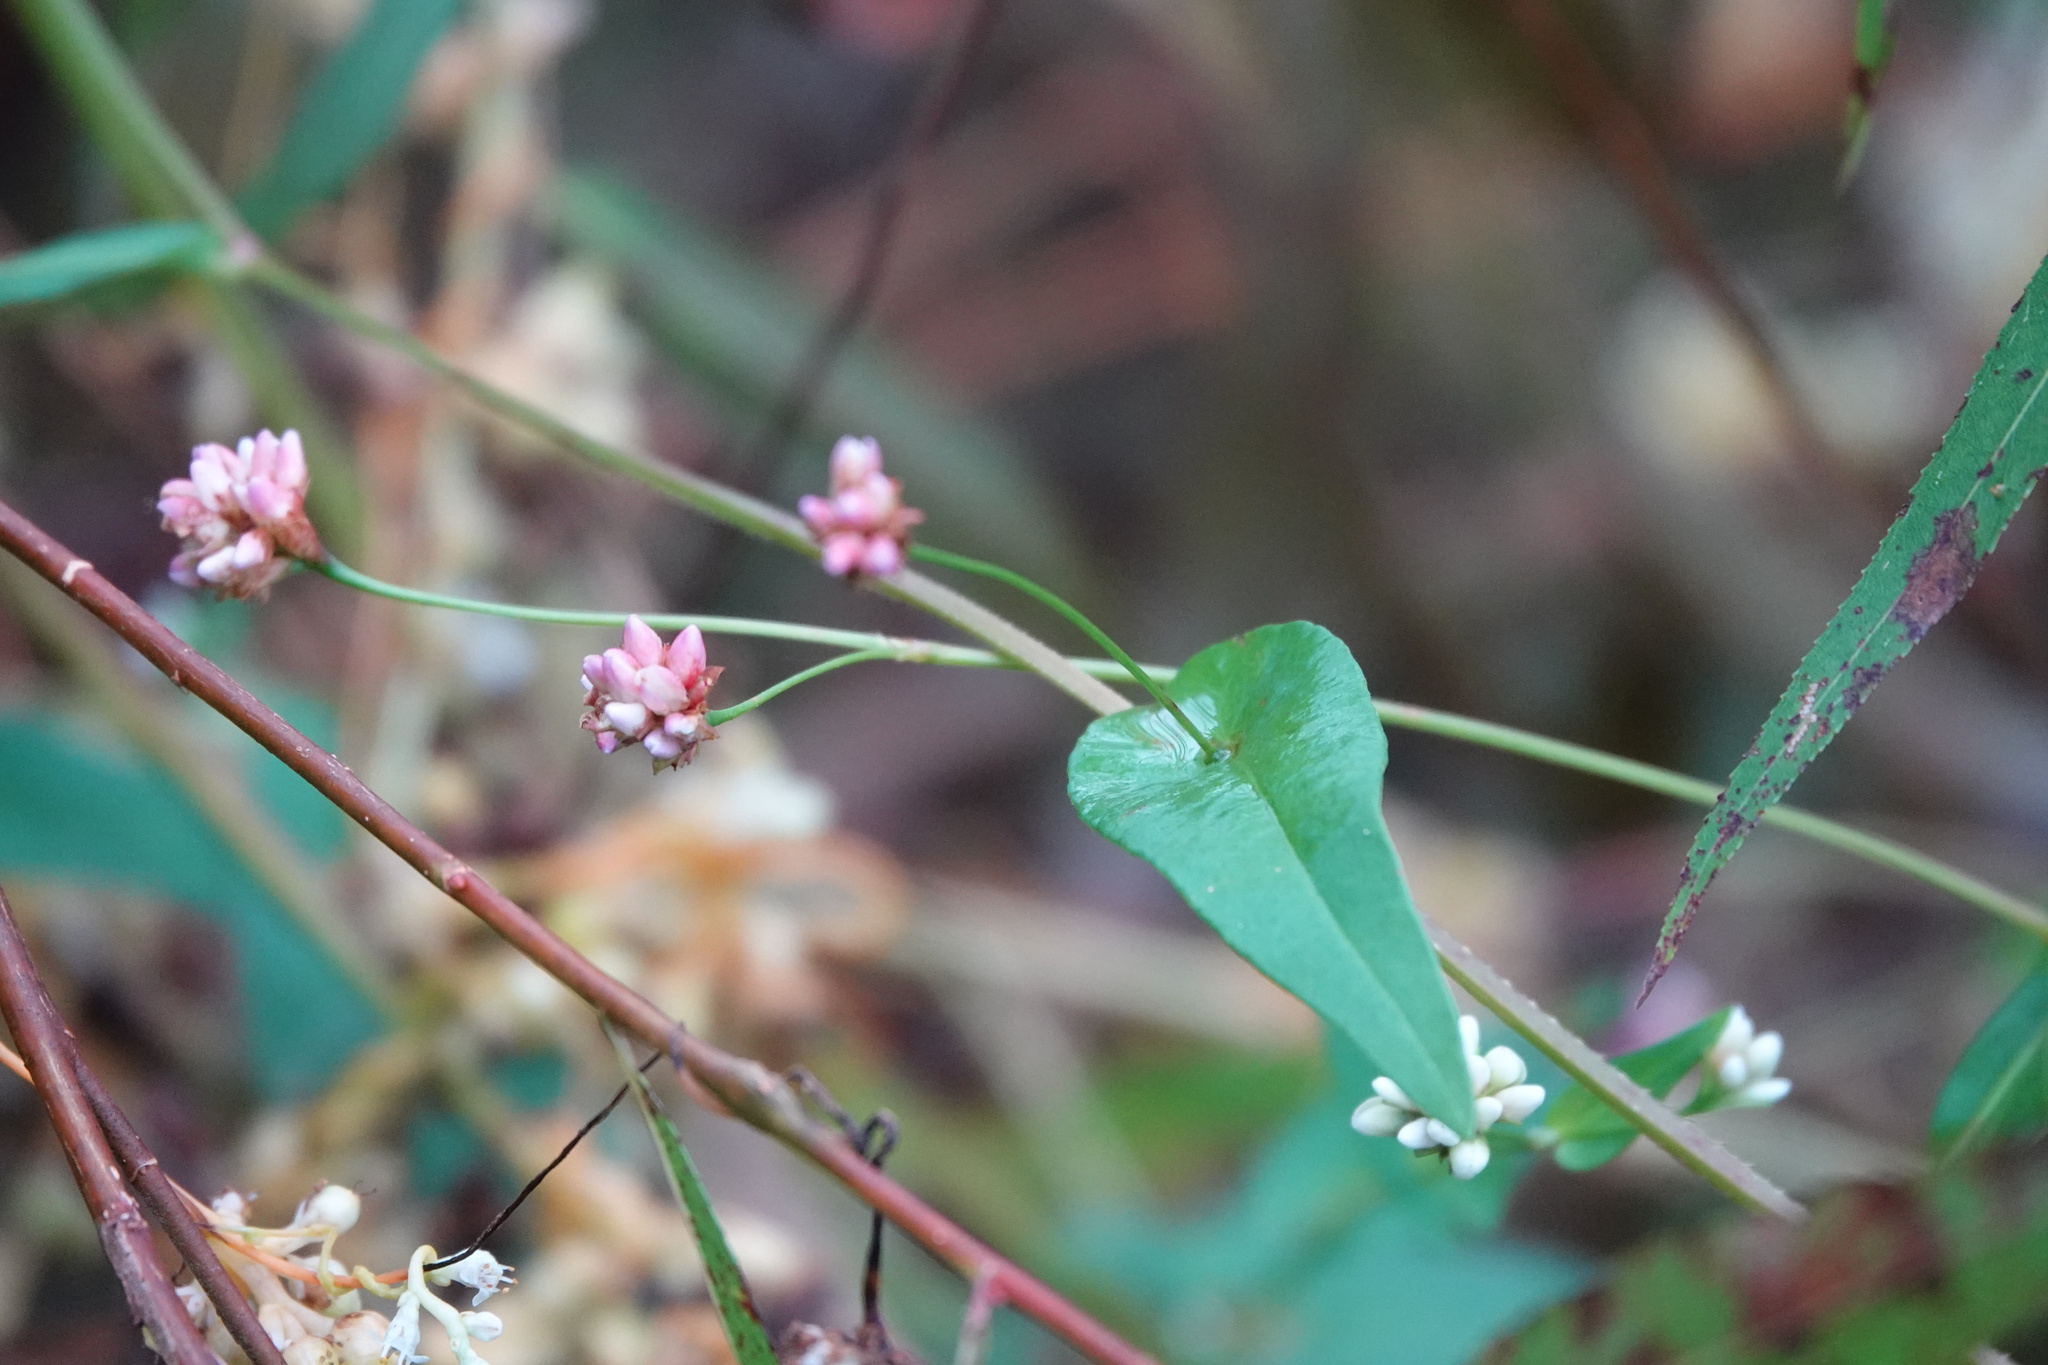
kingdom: Plantae
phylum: Tracheophyta
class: Magnoliopsida
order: Caryophyllales
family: Polygonaceae
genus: Persicaria
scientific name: Persicaria sagittata
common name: American tearthumb
